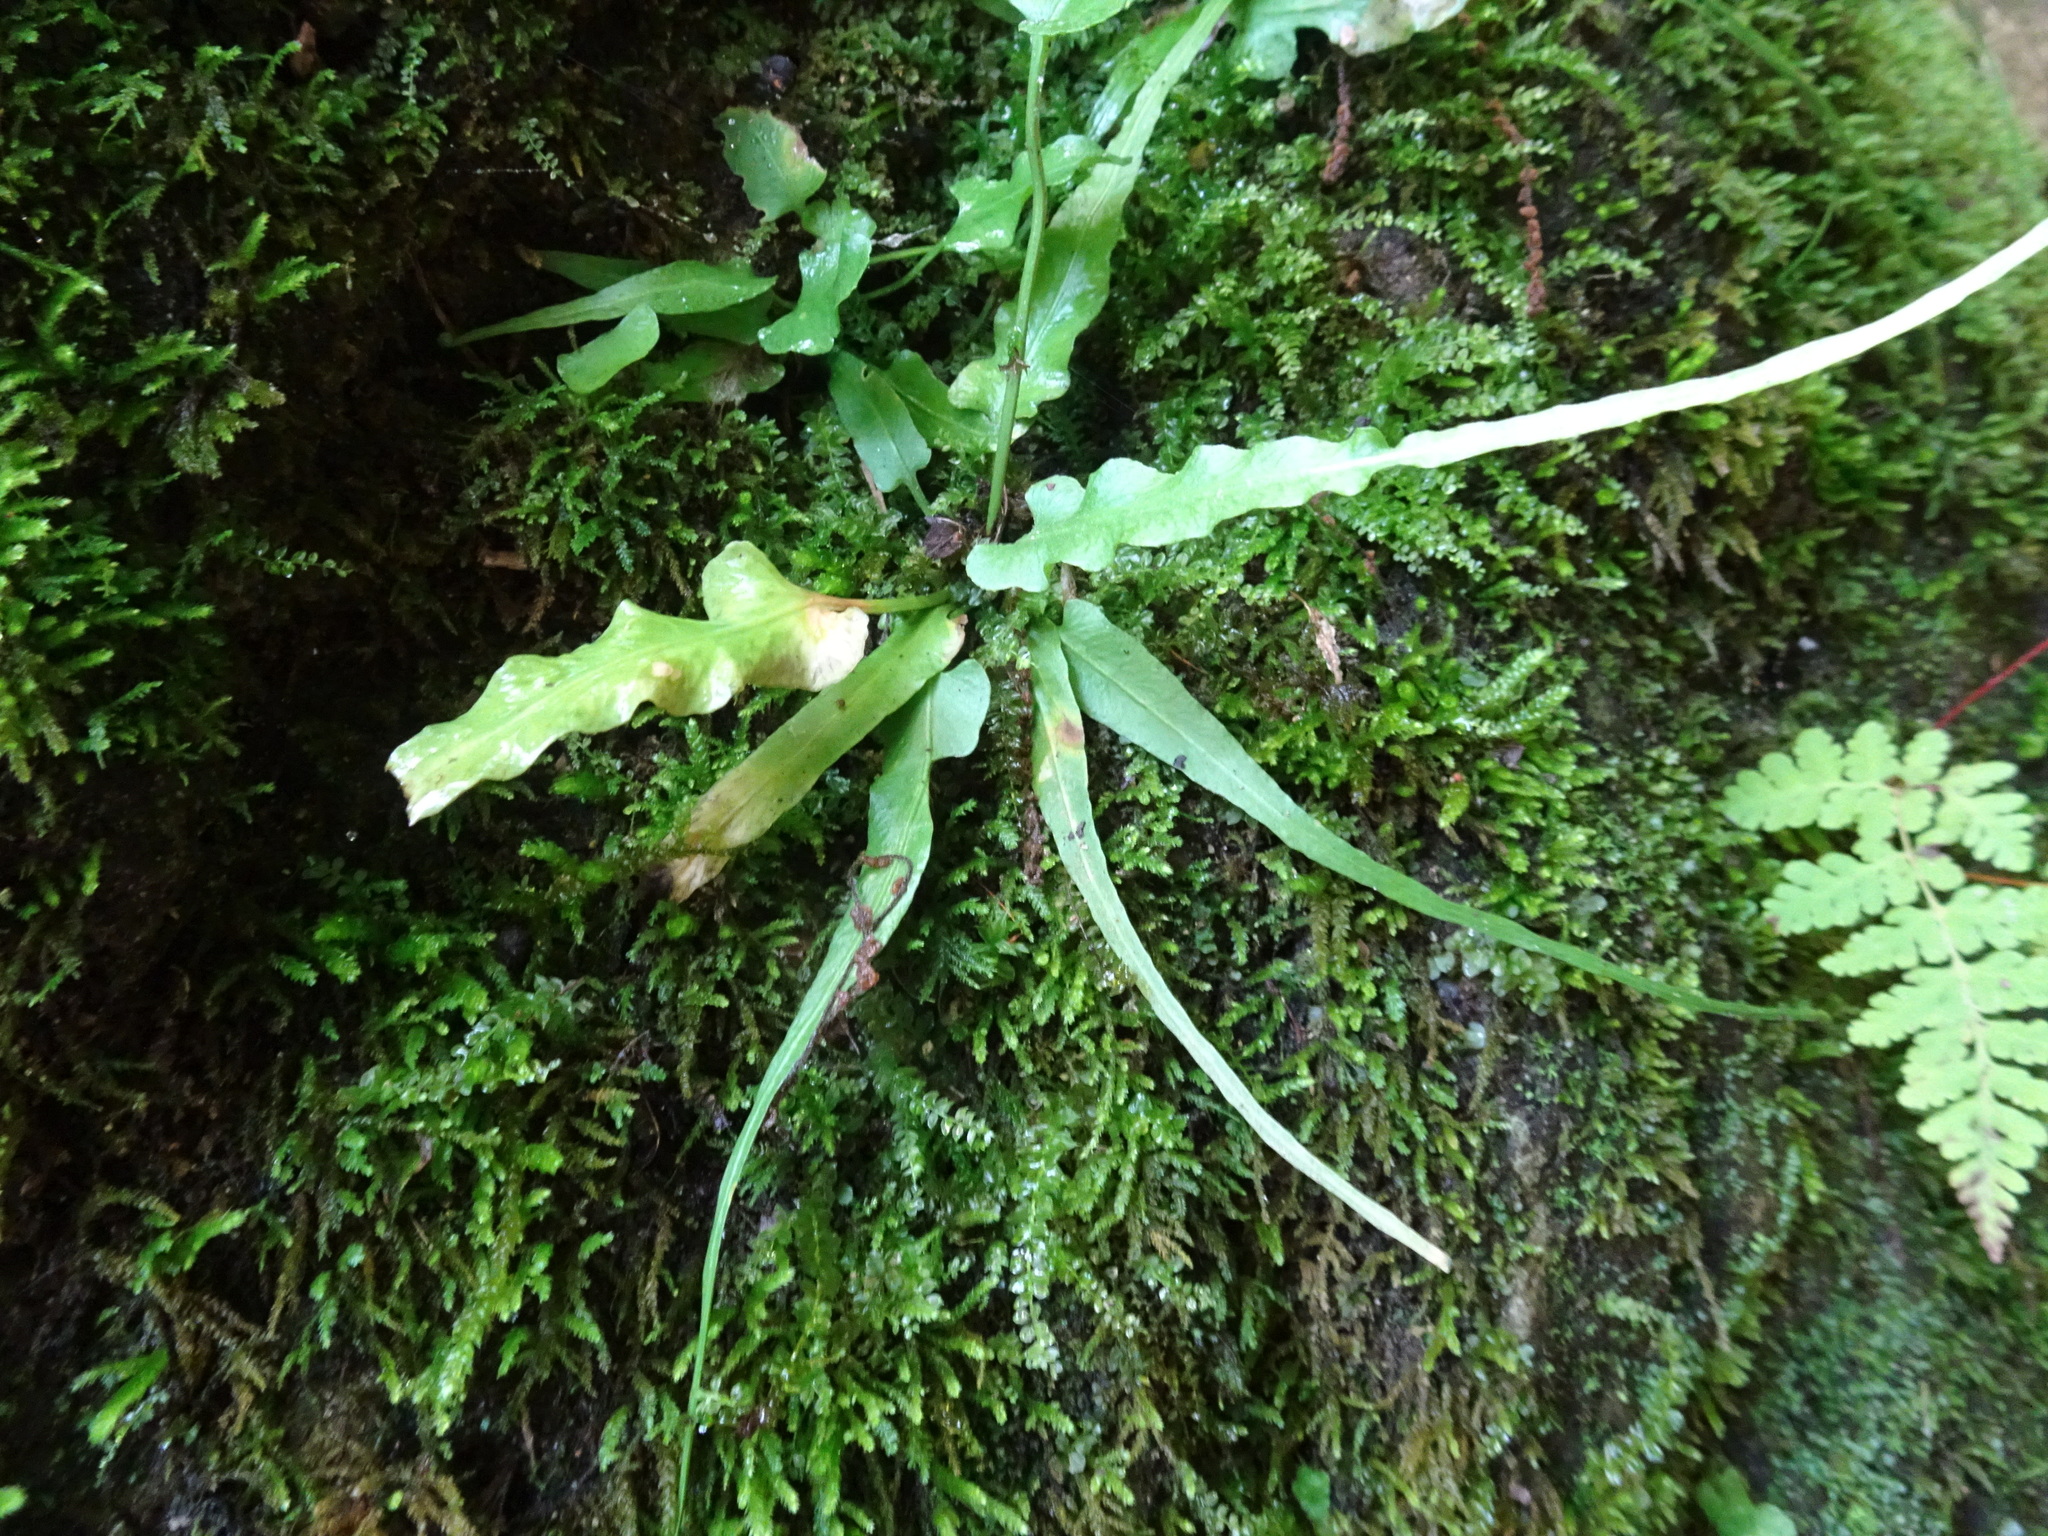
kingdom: Plantae
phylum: Tracheophyta
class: Polypodiopsida
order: Polypodiales
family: Aspleniaceae
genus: Asplenium
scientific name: Asplenium rhizophyllum
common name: Walking fern
